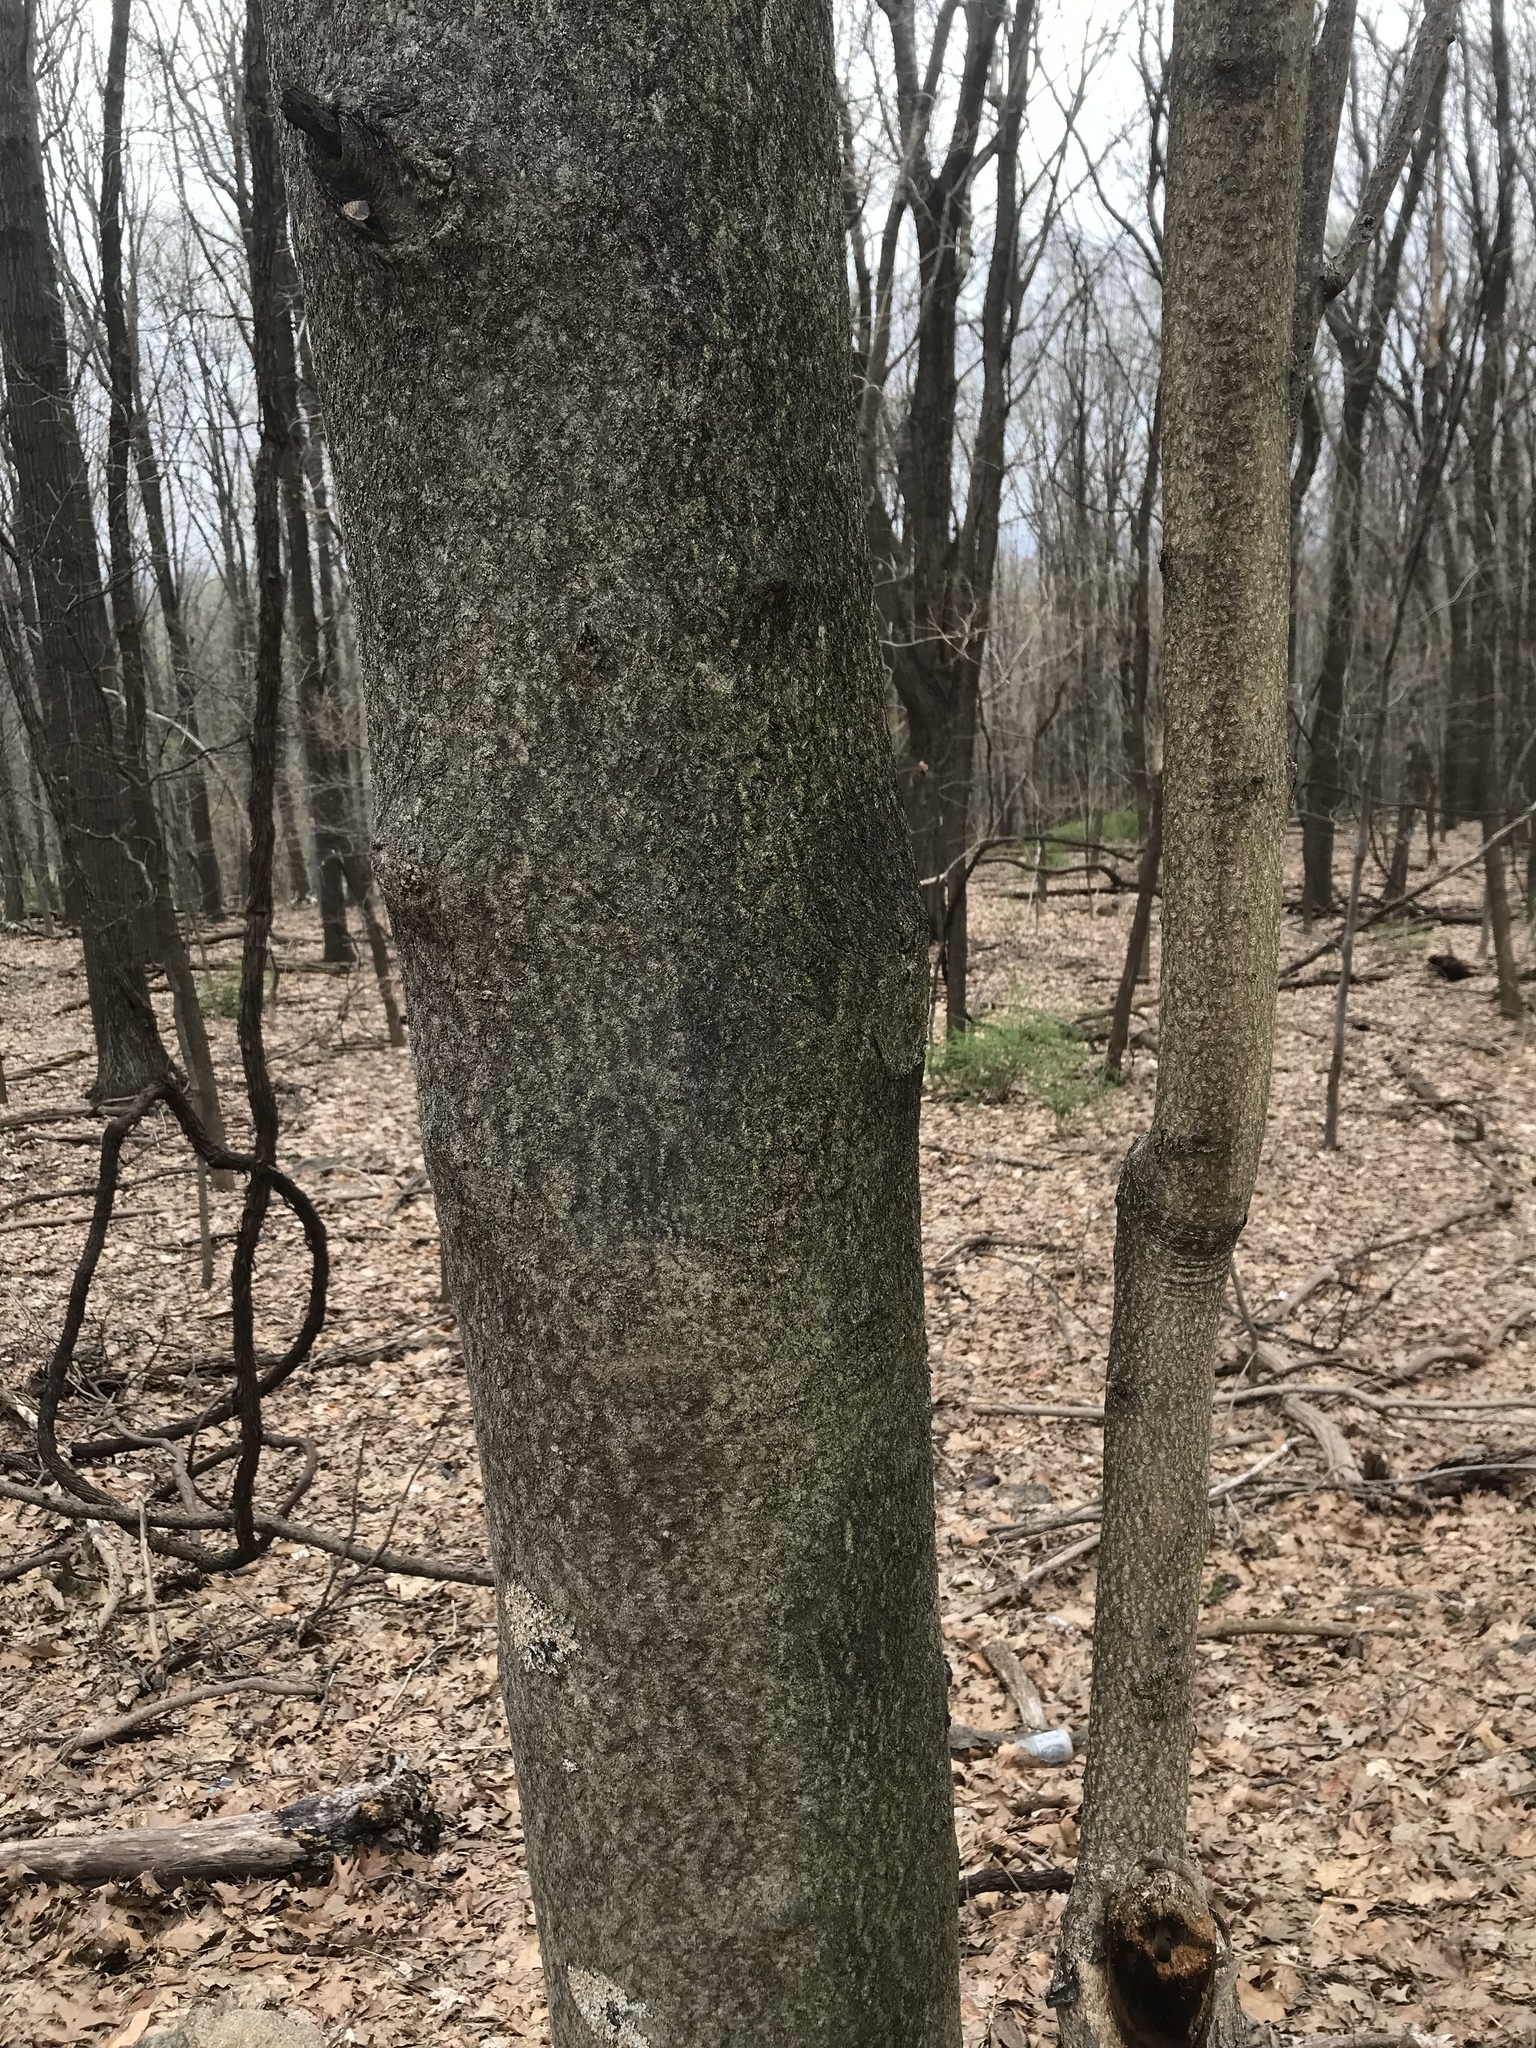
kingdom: Plantae
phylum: Tracheophyta
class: Magnoliopsida
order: Sapindales
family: Simaroubaceae
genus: Ailanthus
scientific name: Ailanthus altissima
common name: Tree-of-heaven
